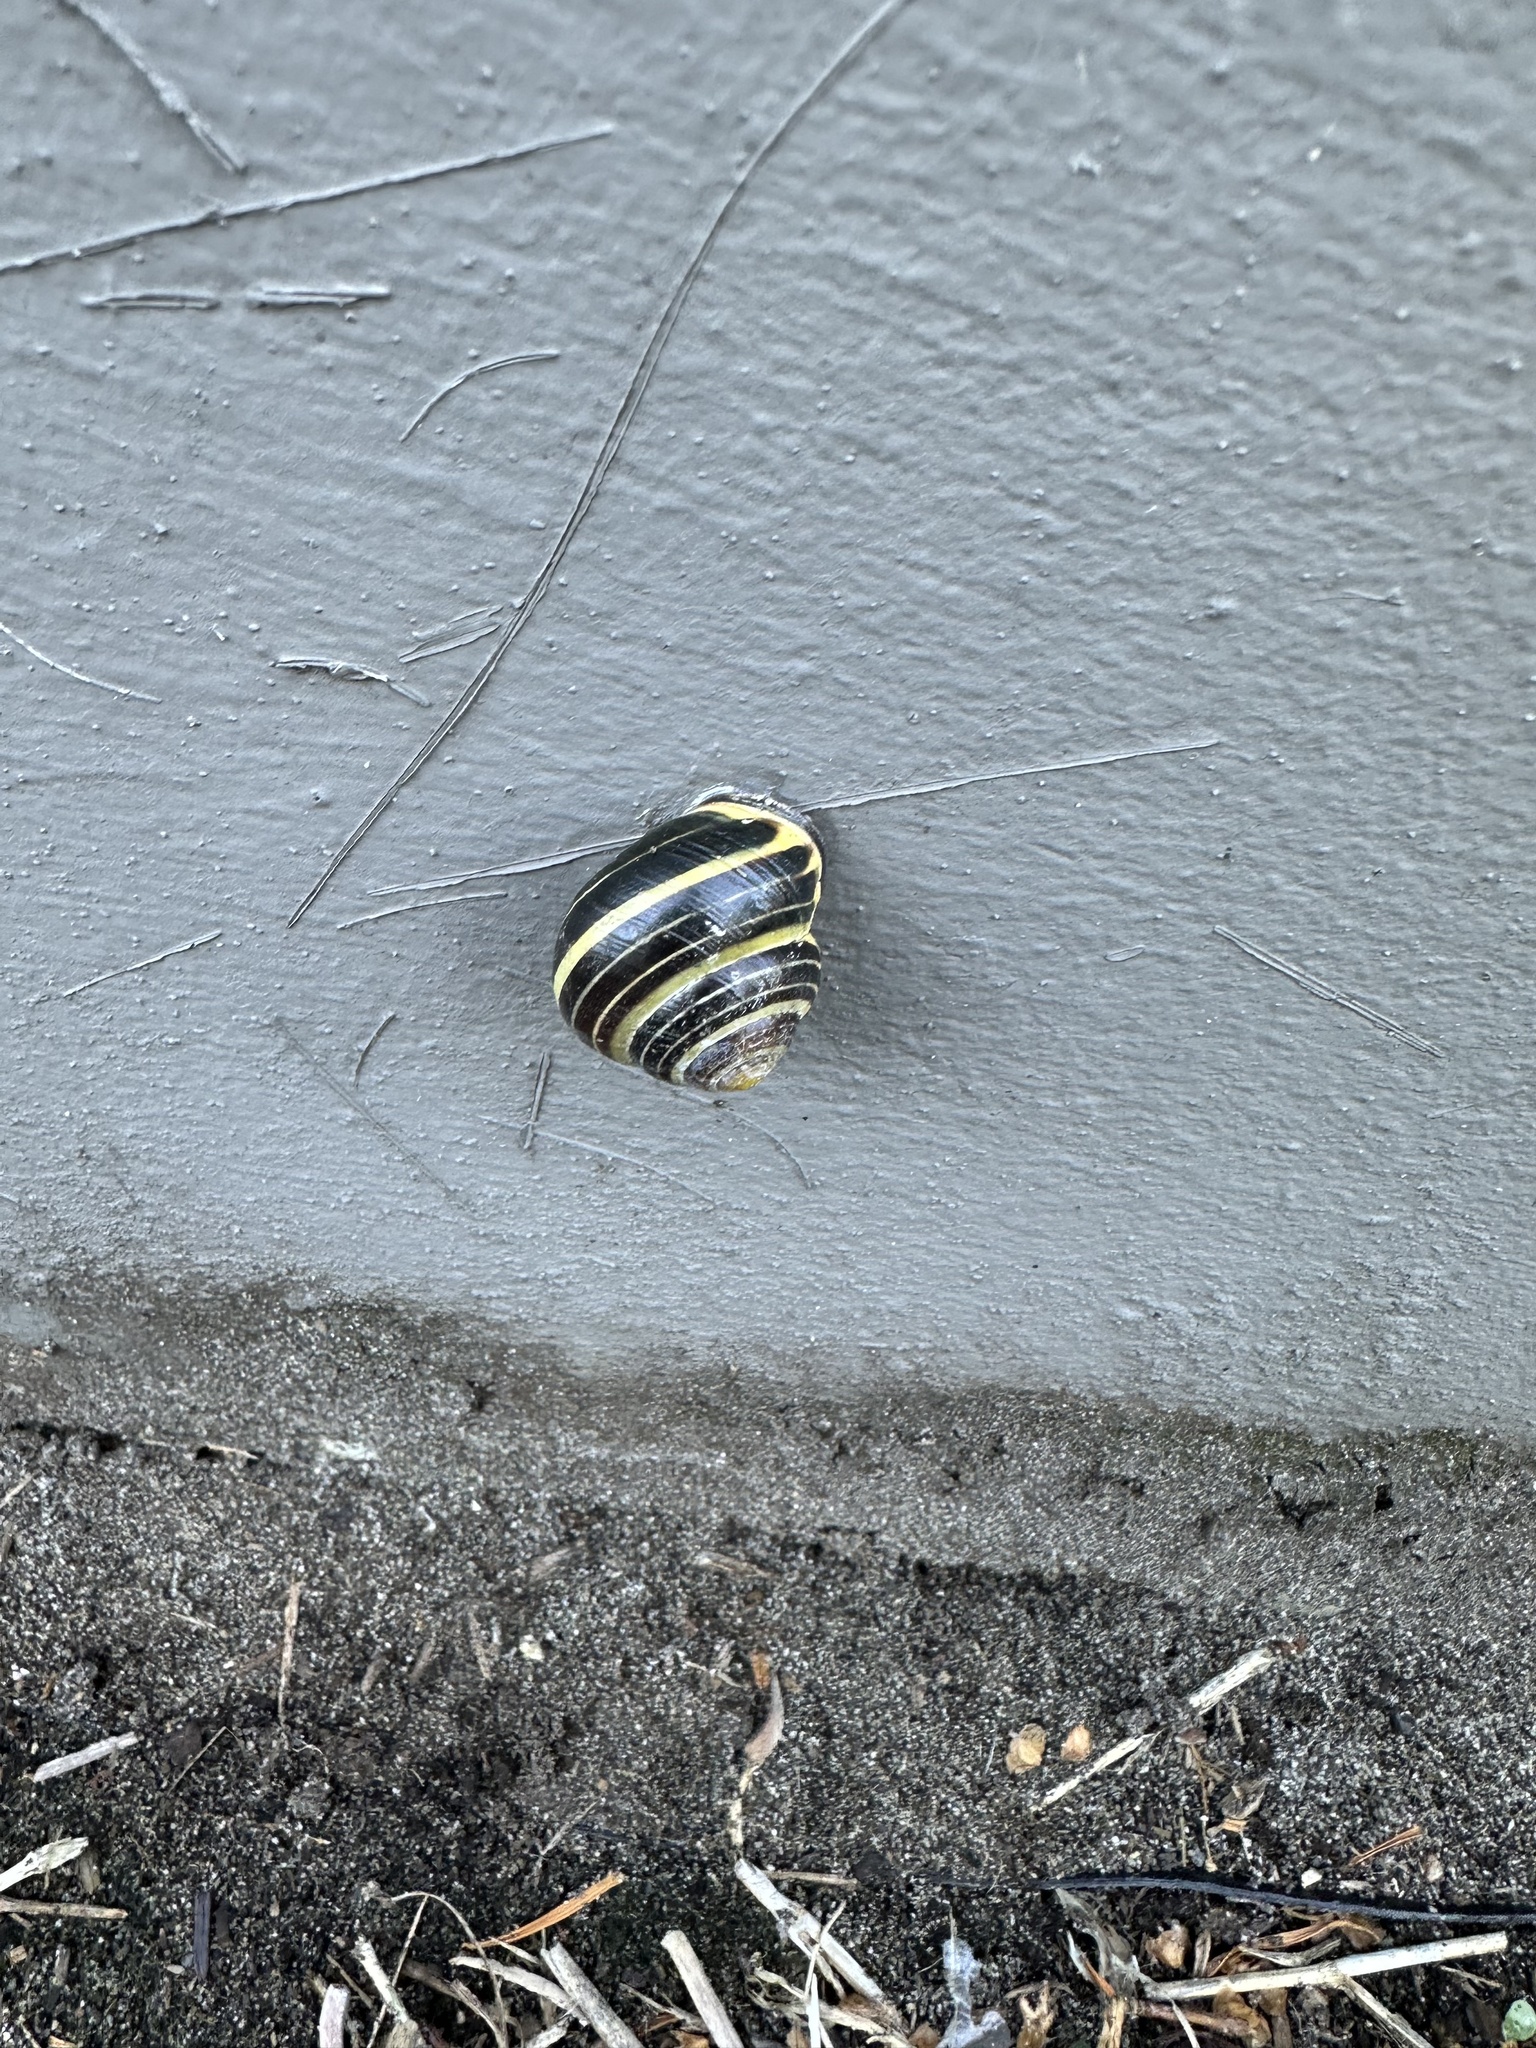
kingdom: Animalia
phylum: Mollusca
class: Gastropoda
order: Stylommatophora
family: Helicidae
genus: Cepaea
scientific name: Cepaea nemoralis
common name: Grovesnail
